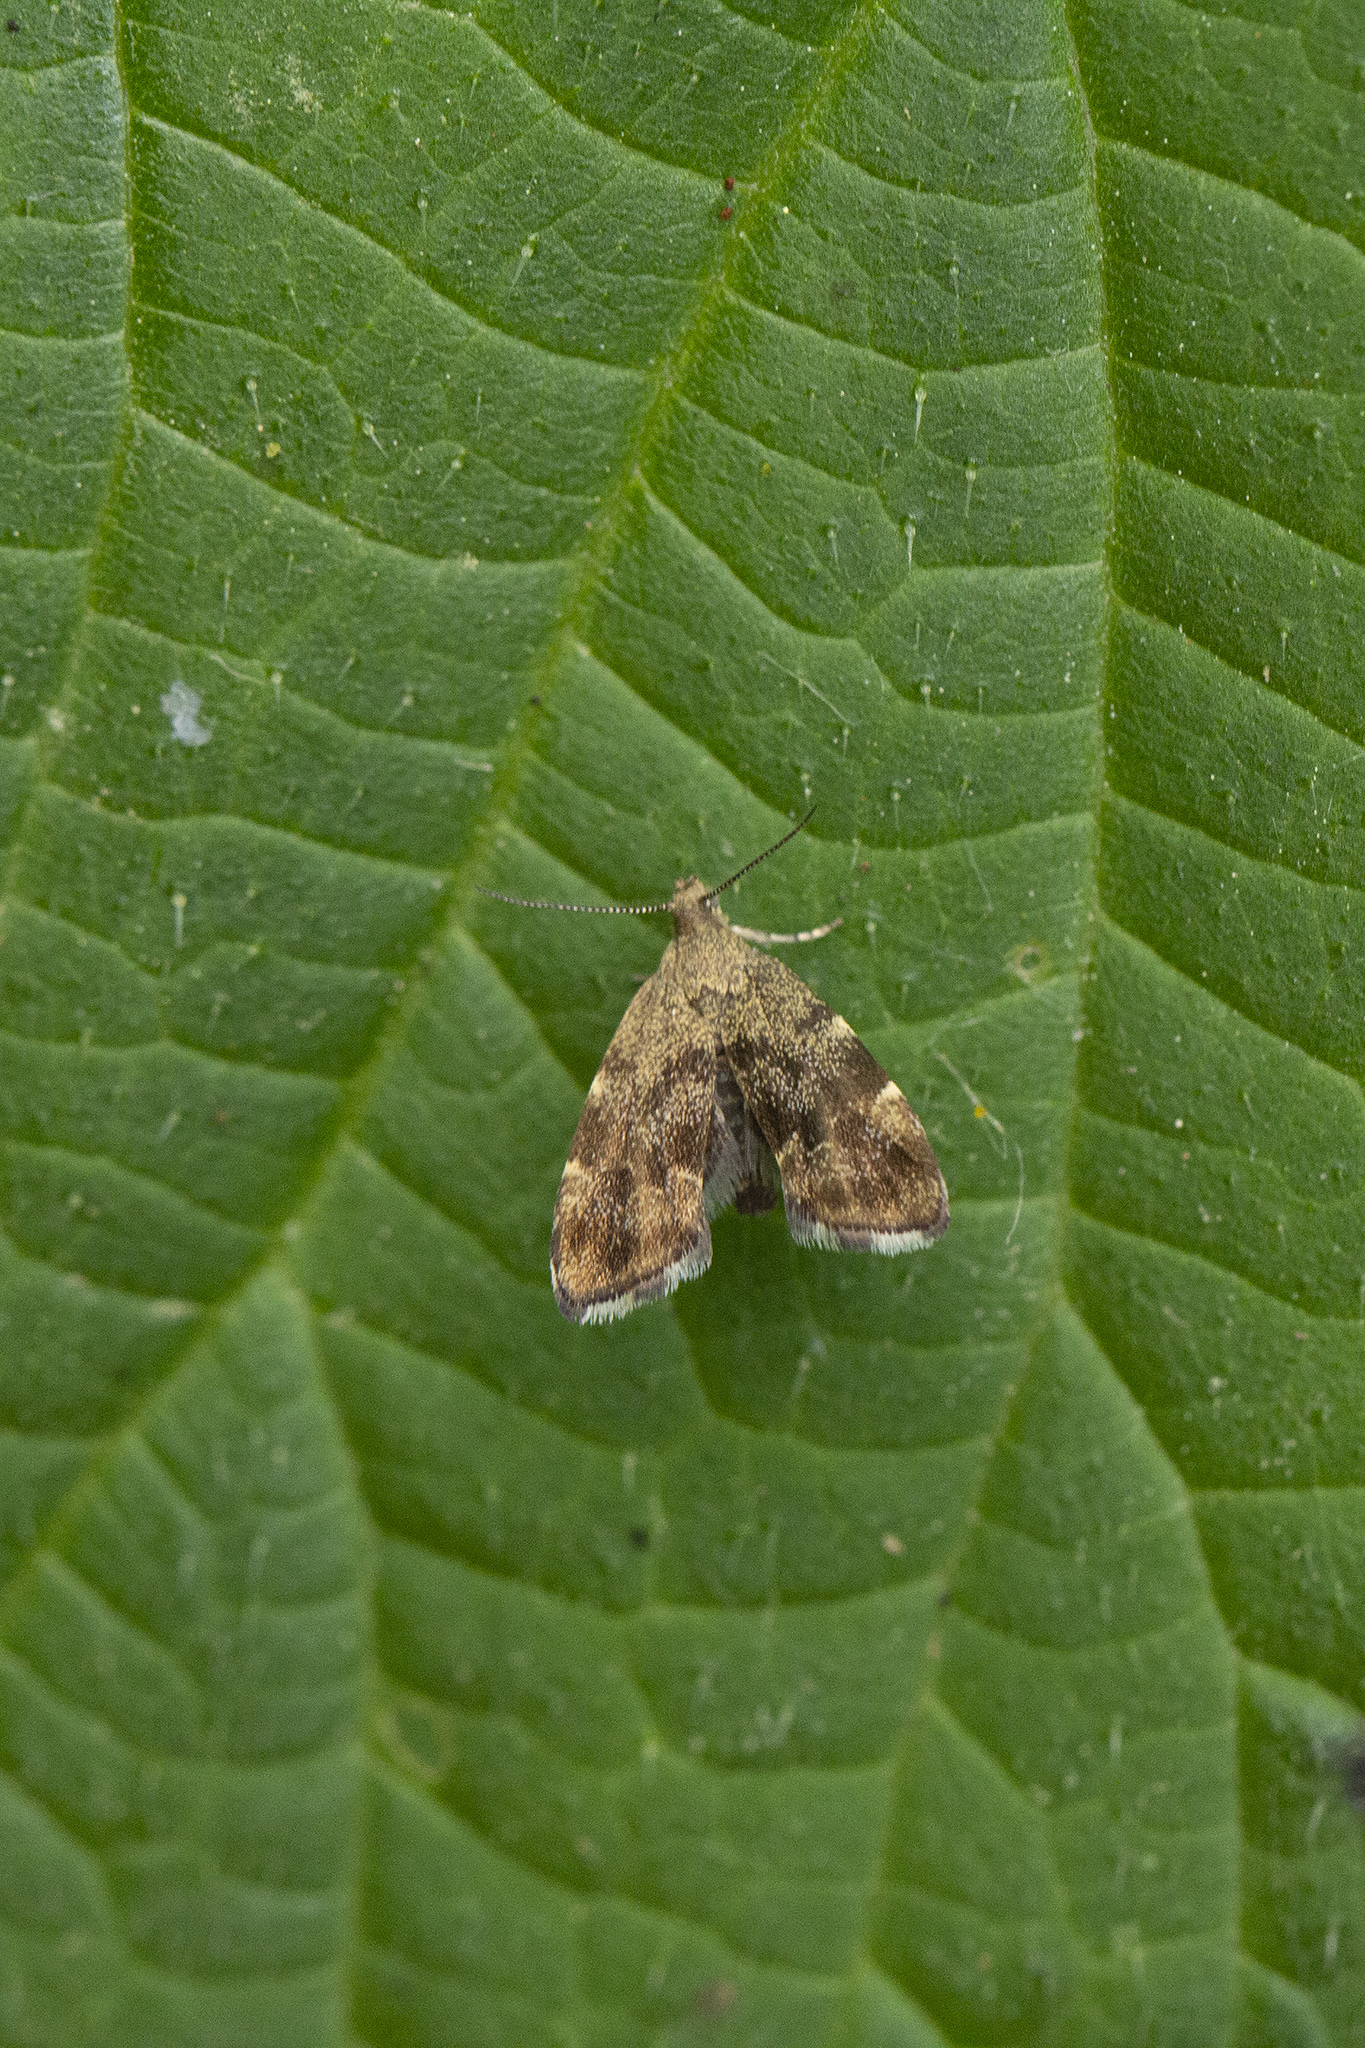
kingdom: Animalia
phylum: Arthropoda
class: Insecta
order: Lepidoptera
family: Choreutidae
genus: Anthophila
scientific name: Anthophila fabriciana
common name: Nettle-tap
